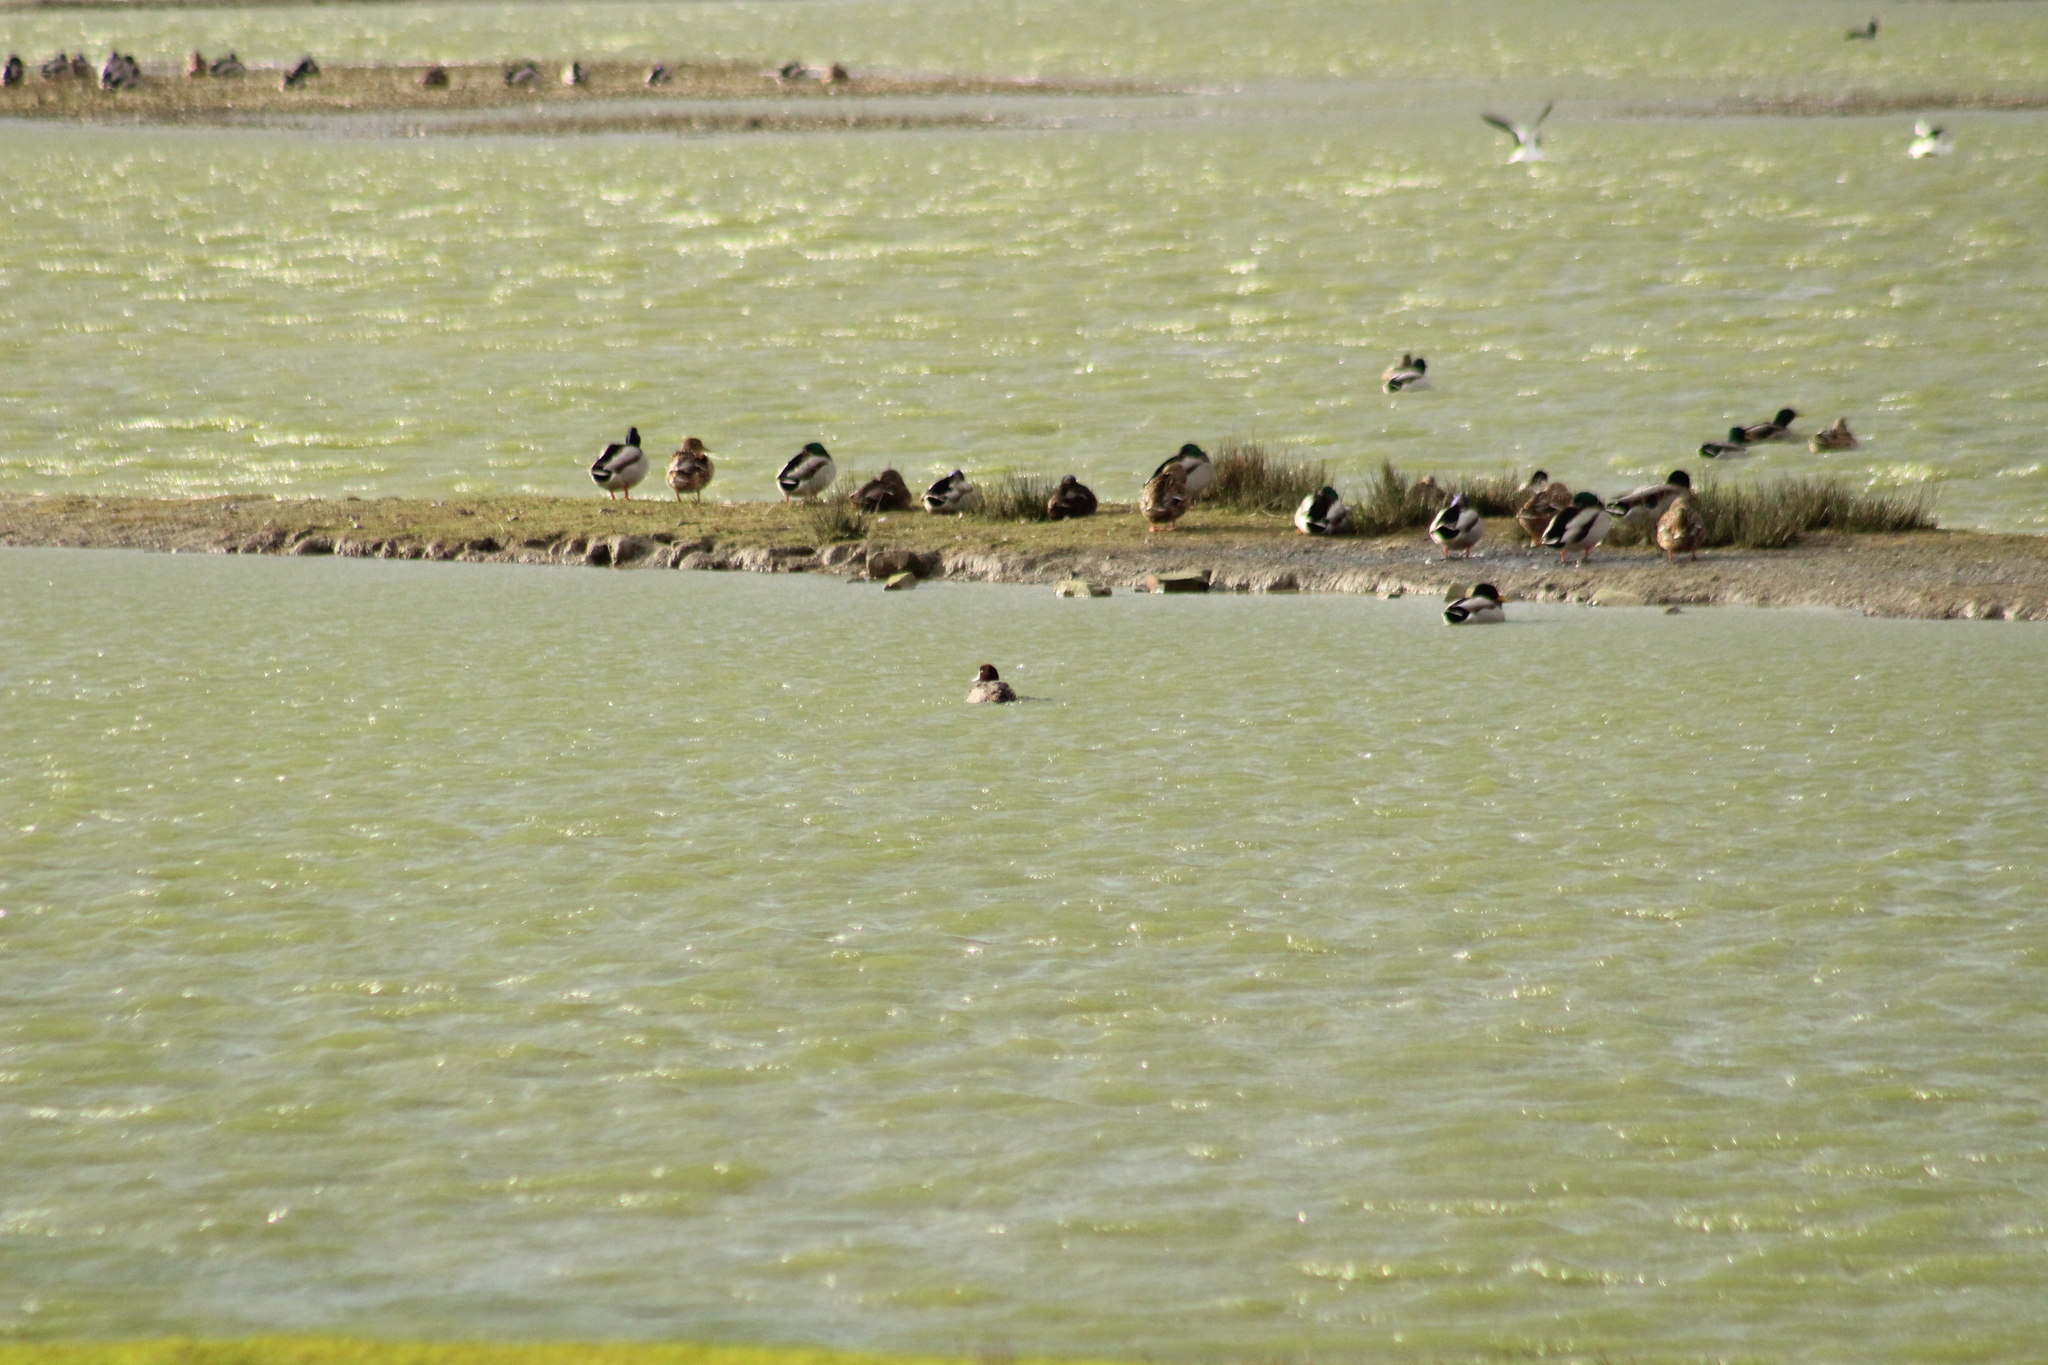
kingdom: Animalia
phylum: Chordata
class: Aves
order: Anseriformes
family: Anatidae
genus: Aythya
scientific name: Aythya marila
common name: Greater scaup
